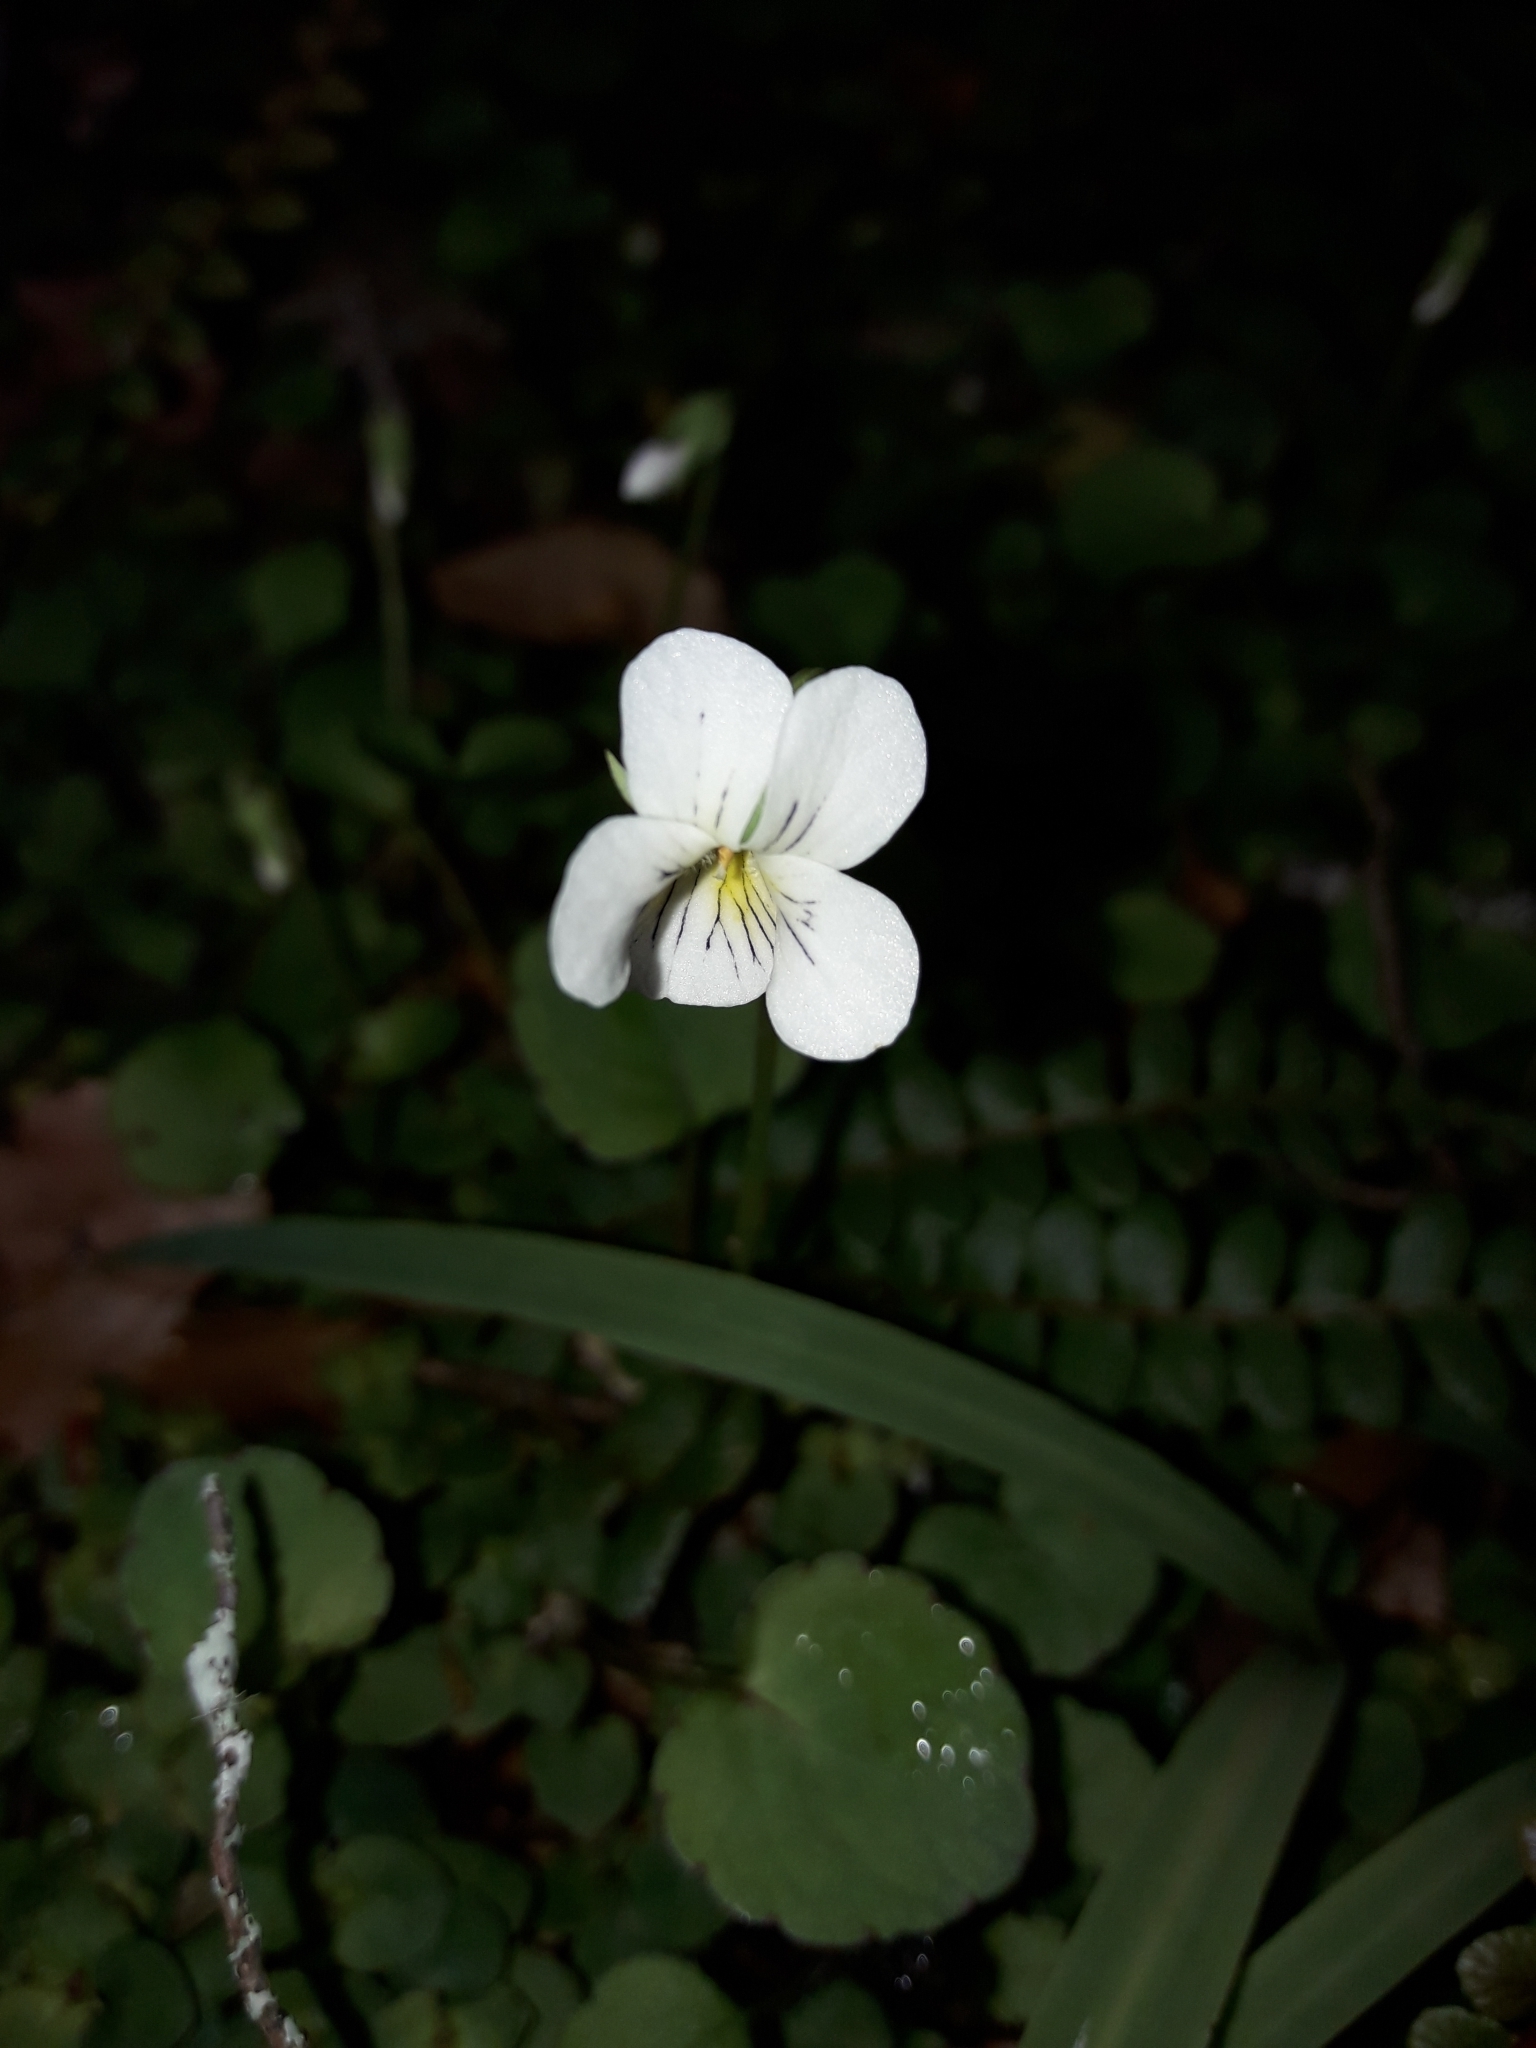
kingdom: Plantae
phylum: Tracheophyta
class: Magnoliopsida
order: Malpighiales
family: Violaceae
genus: Viola
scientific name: Viola filicaulis
